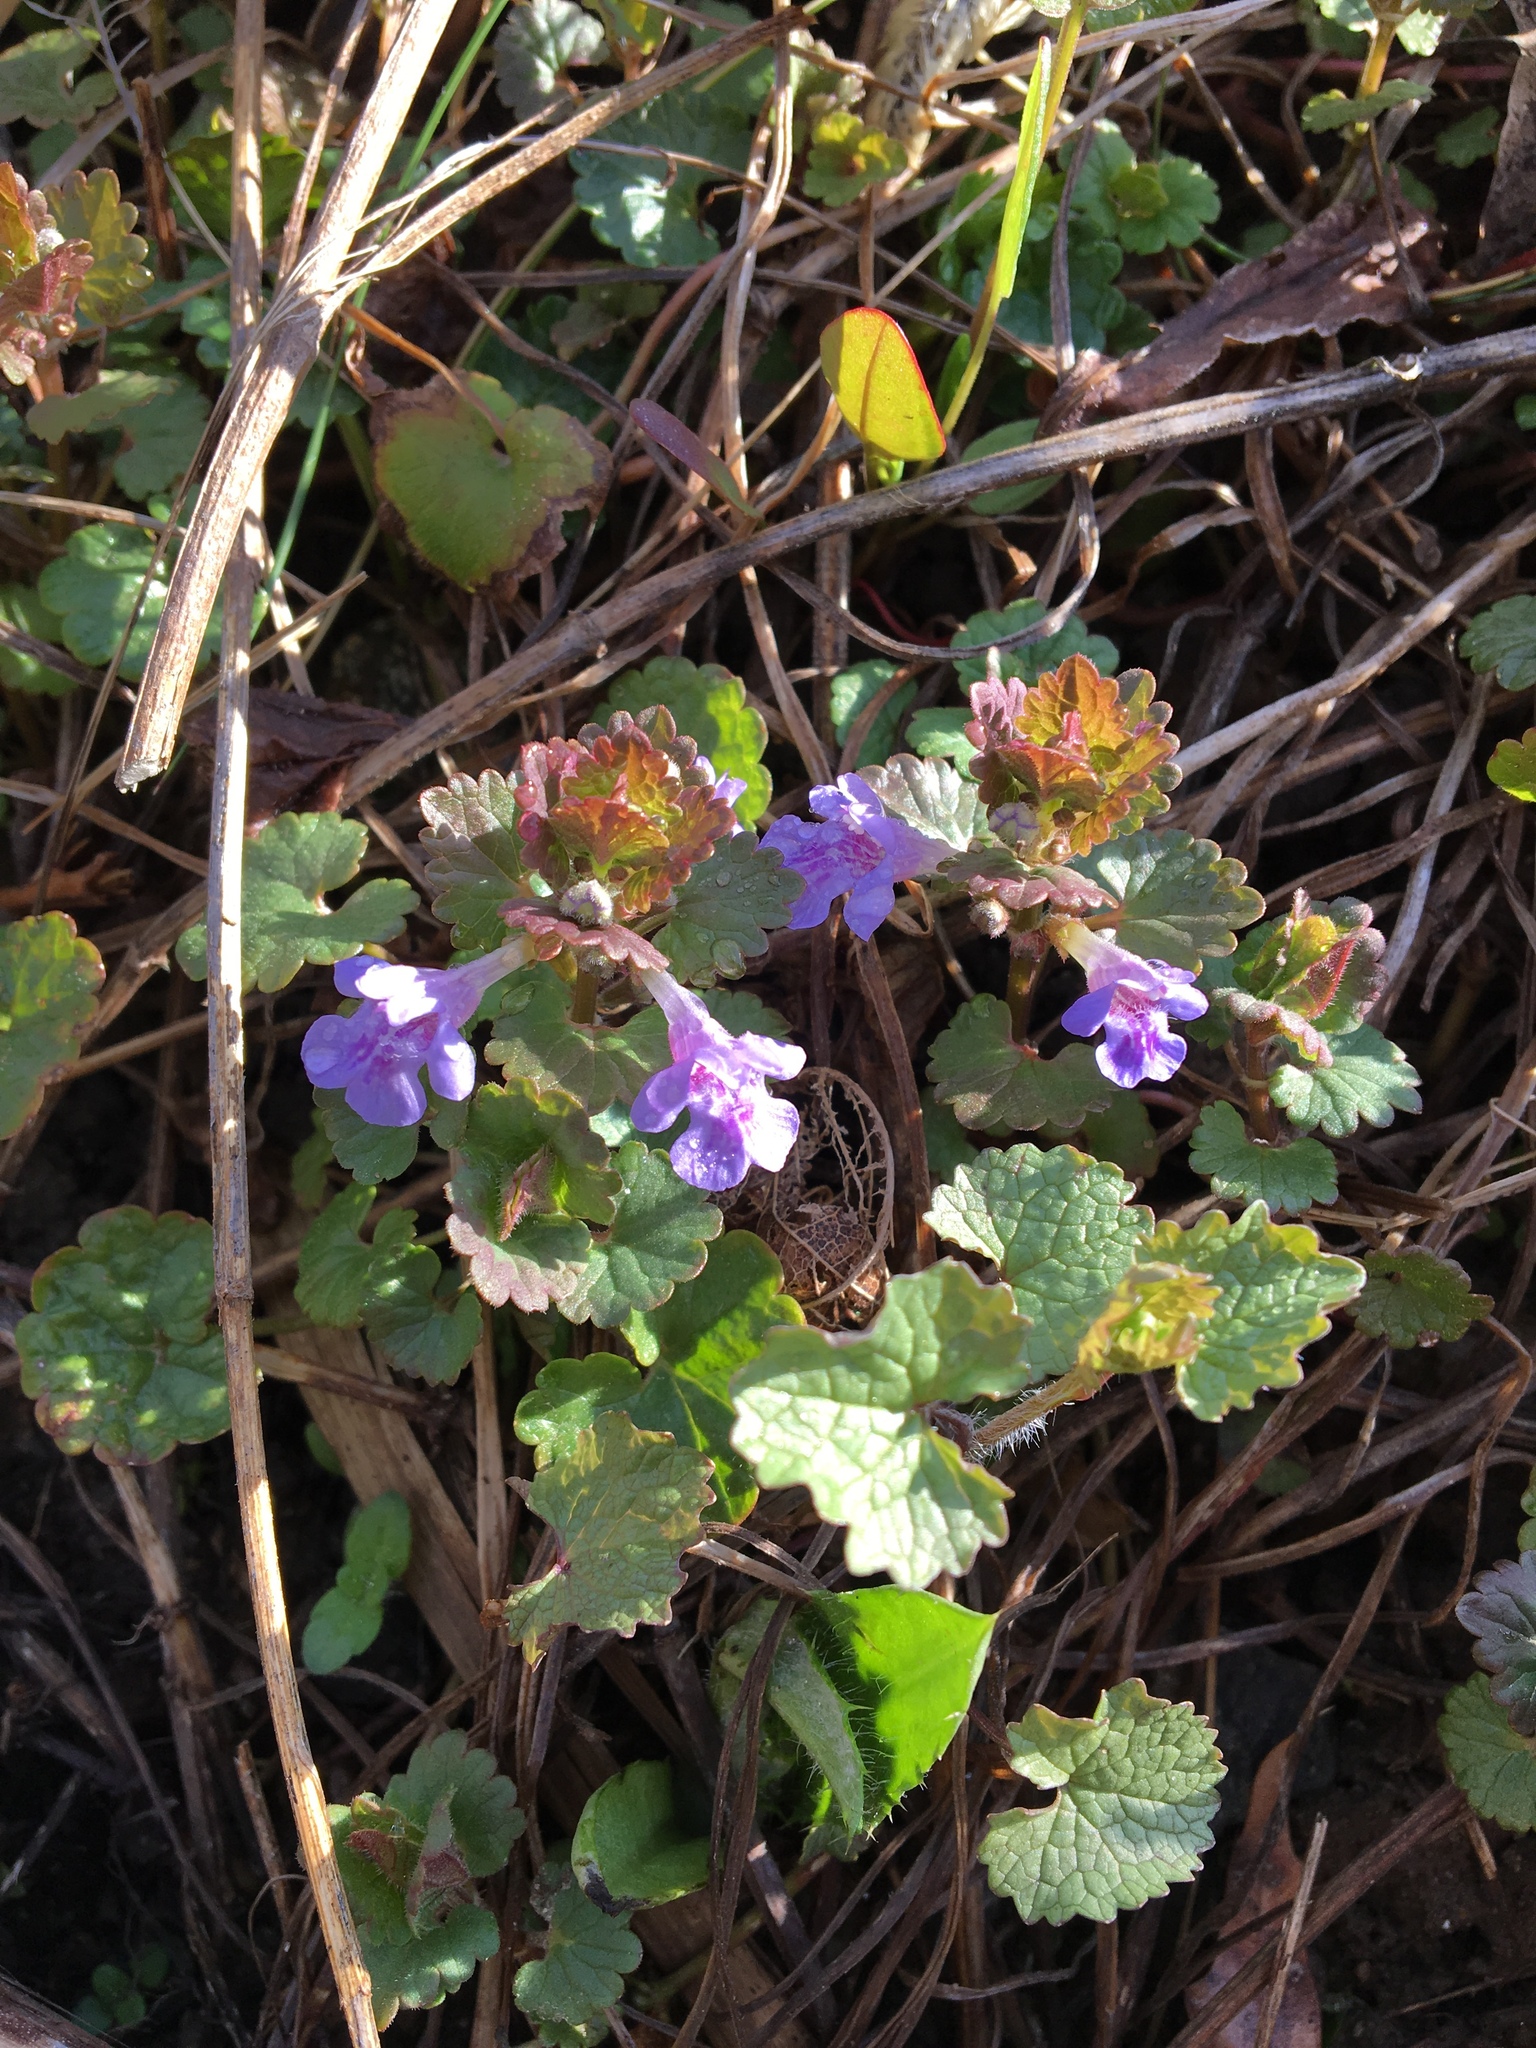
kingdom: Plantae
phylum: Tracheophyta
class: Magnoliopsida
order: Lamiales
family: Lamiaceae
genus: Glechoma
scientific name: Glechoma hederacea
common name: Ground ivy
